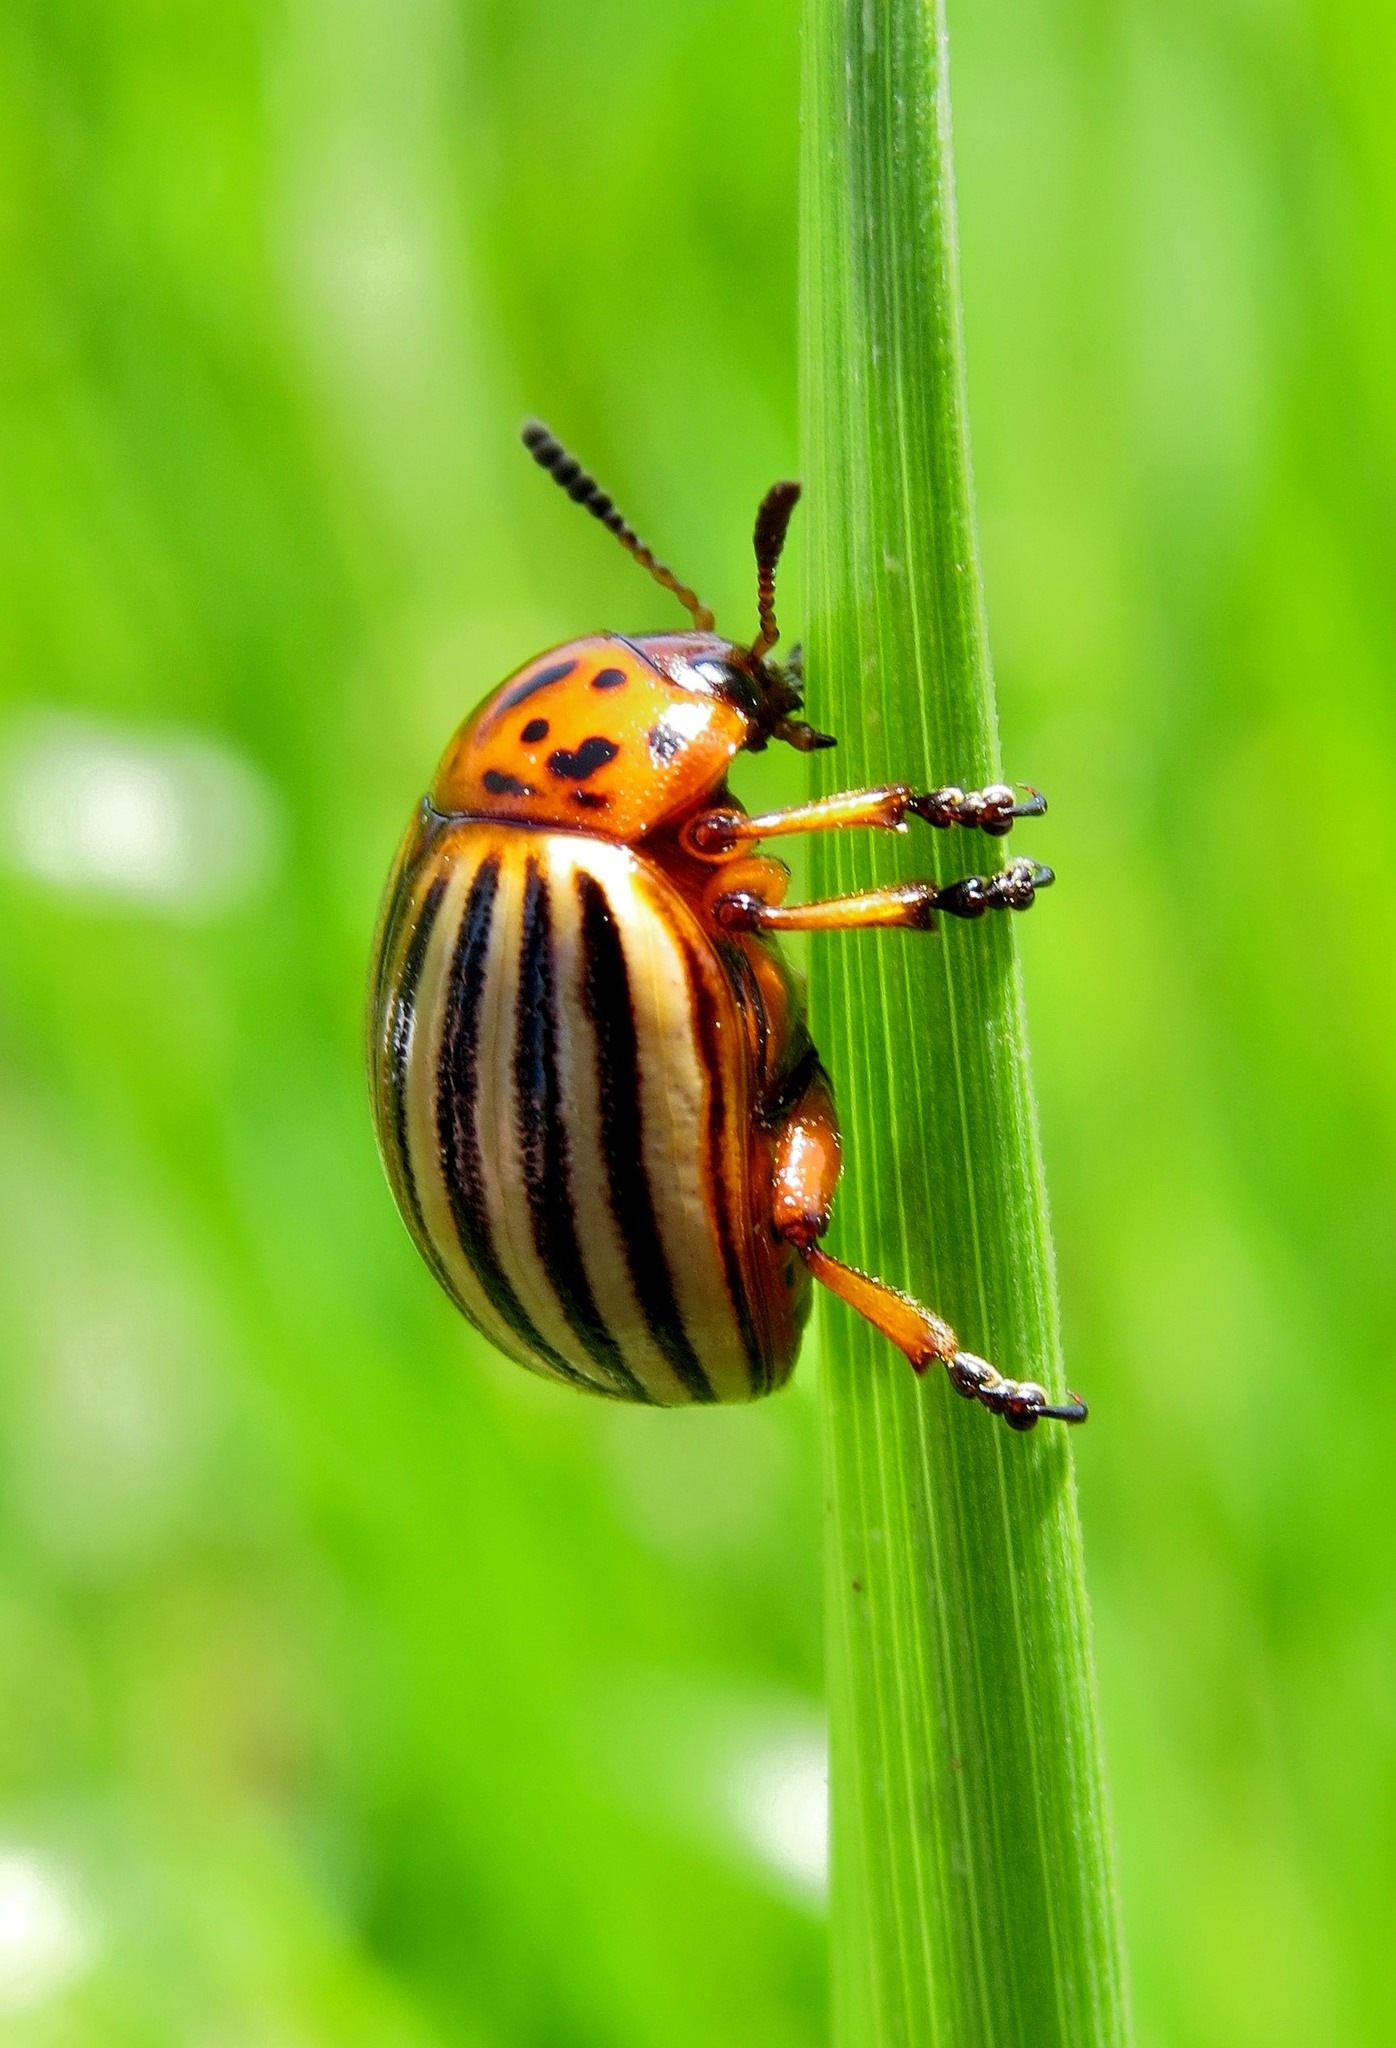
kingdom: Animalia
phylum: Arthropoda
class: Insecta
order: Coleoptera
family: Chrysomelidae
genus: Leptinotarsa
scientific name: Leptinotarsa decemlineata
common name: Colorado potato beetle
